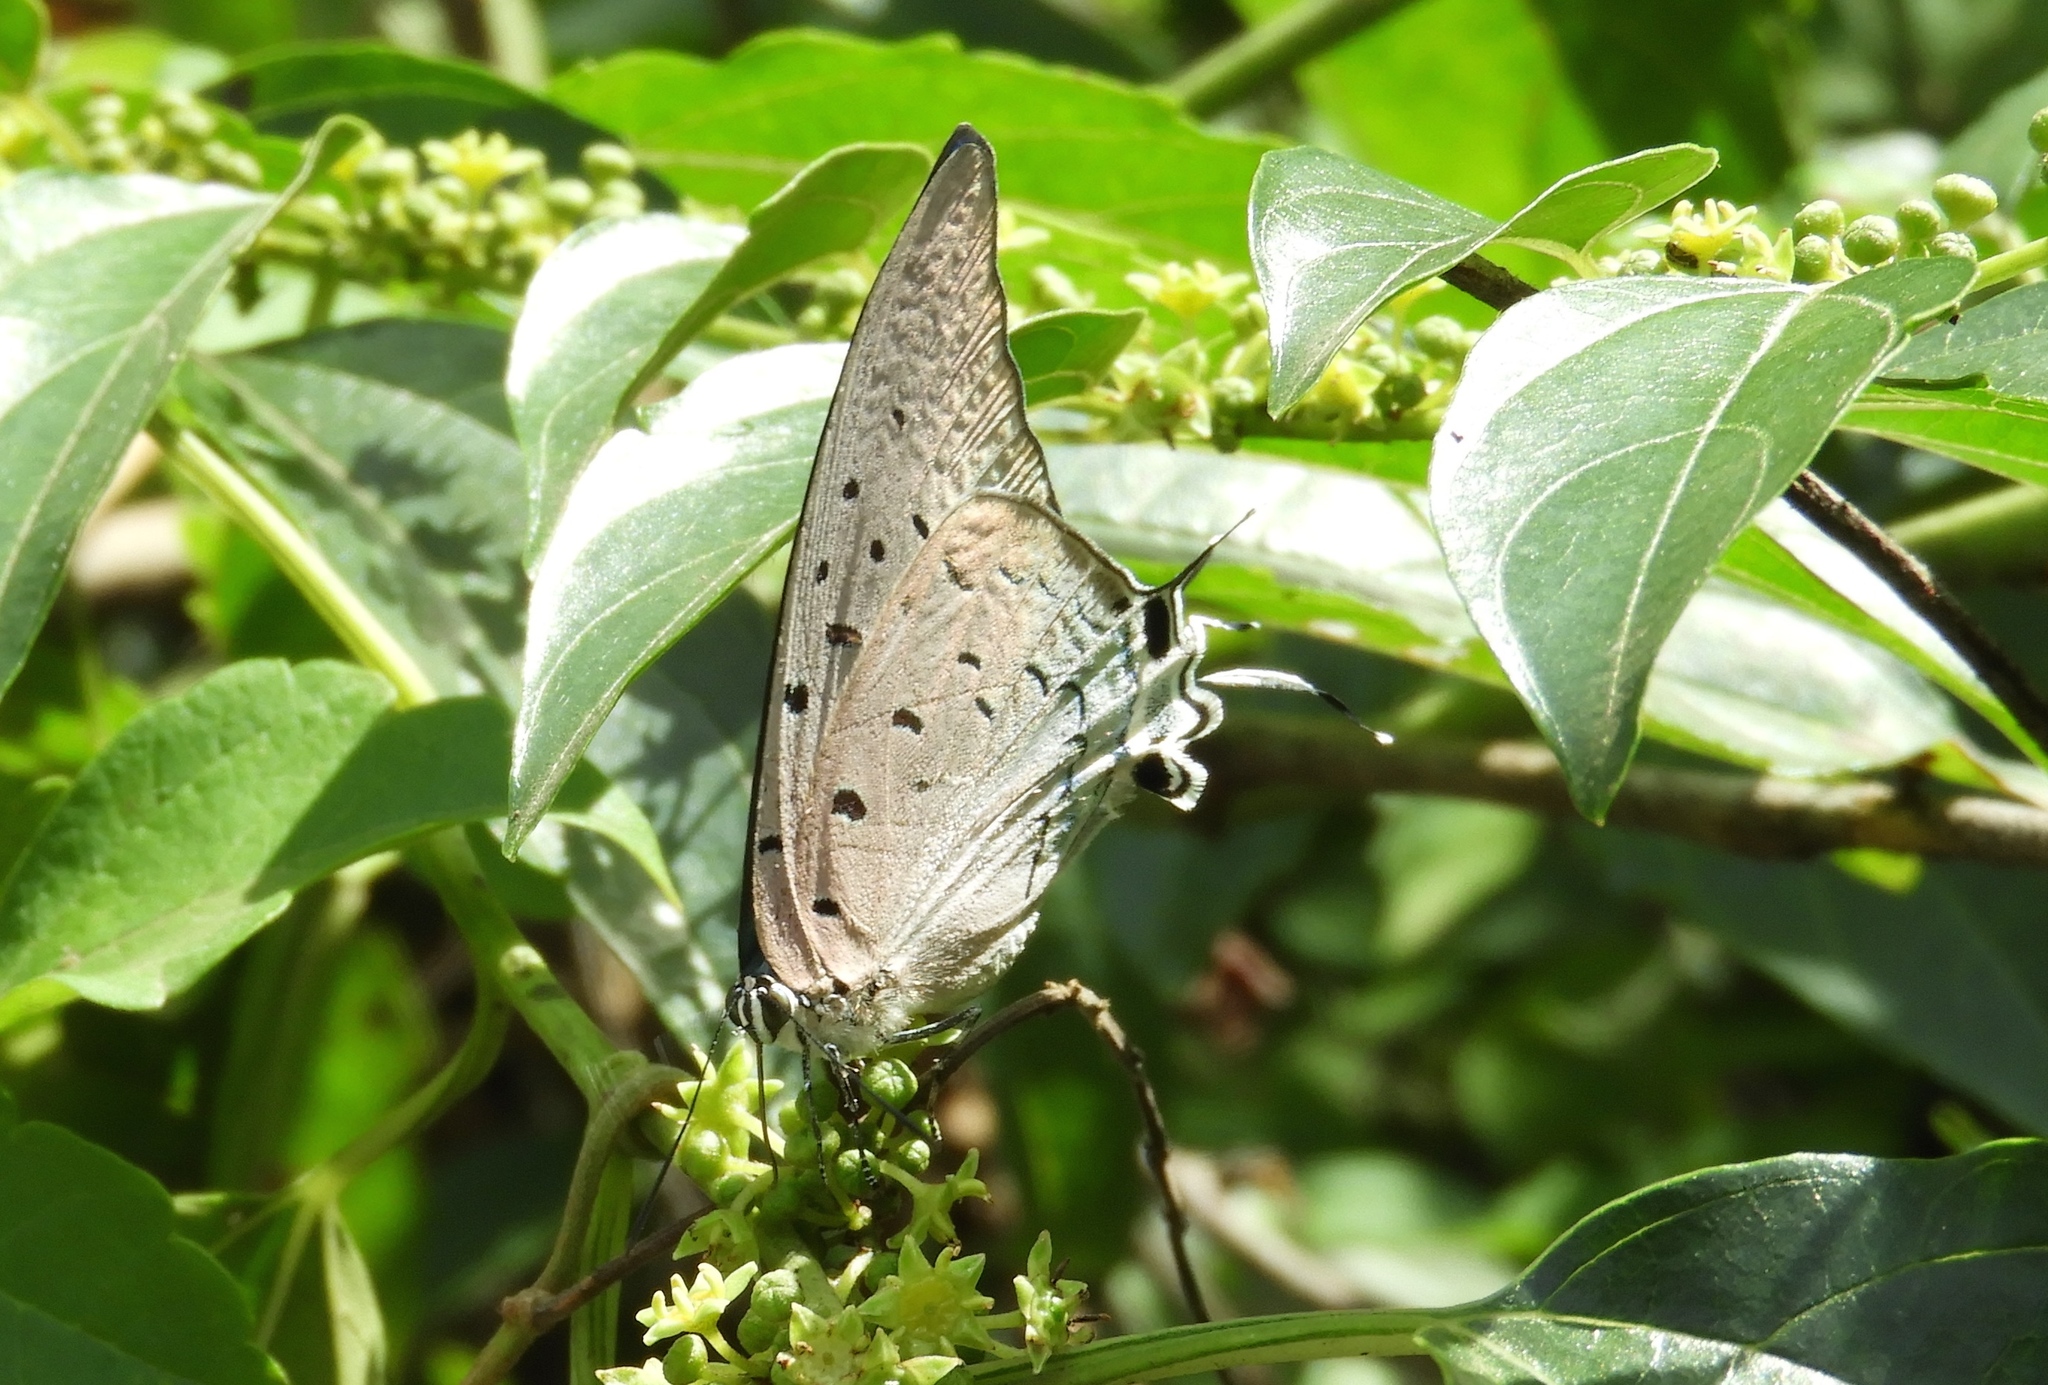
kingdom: Animalia
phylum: Arthropoda
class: Insecta
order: Lepidoptera
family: Lycaenidae
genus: Pseudolycaena
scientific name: Pseudolycaena damo
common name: Sky-blue hairstreak
